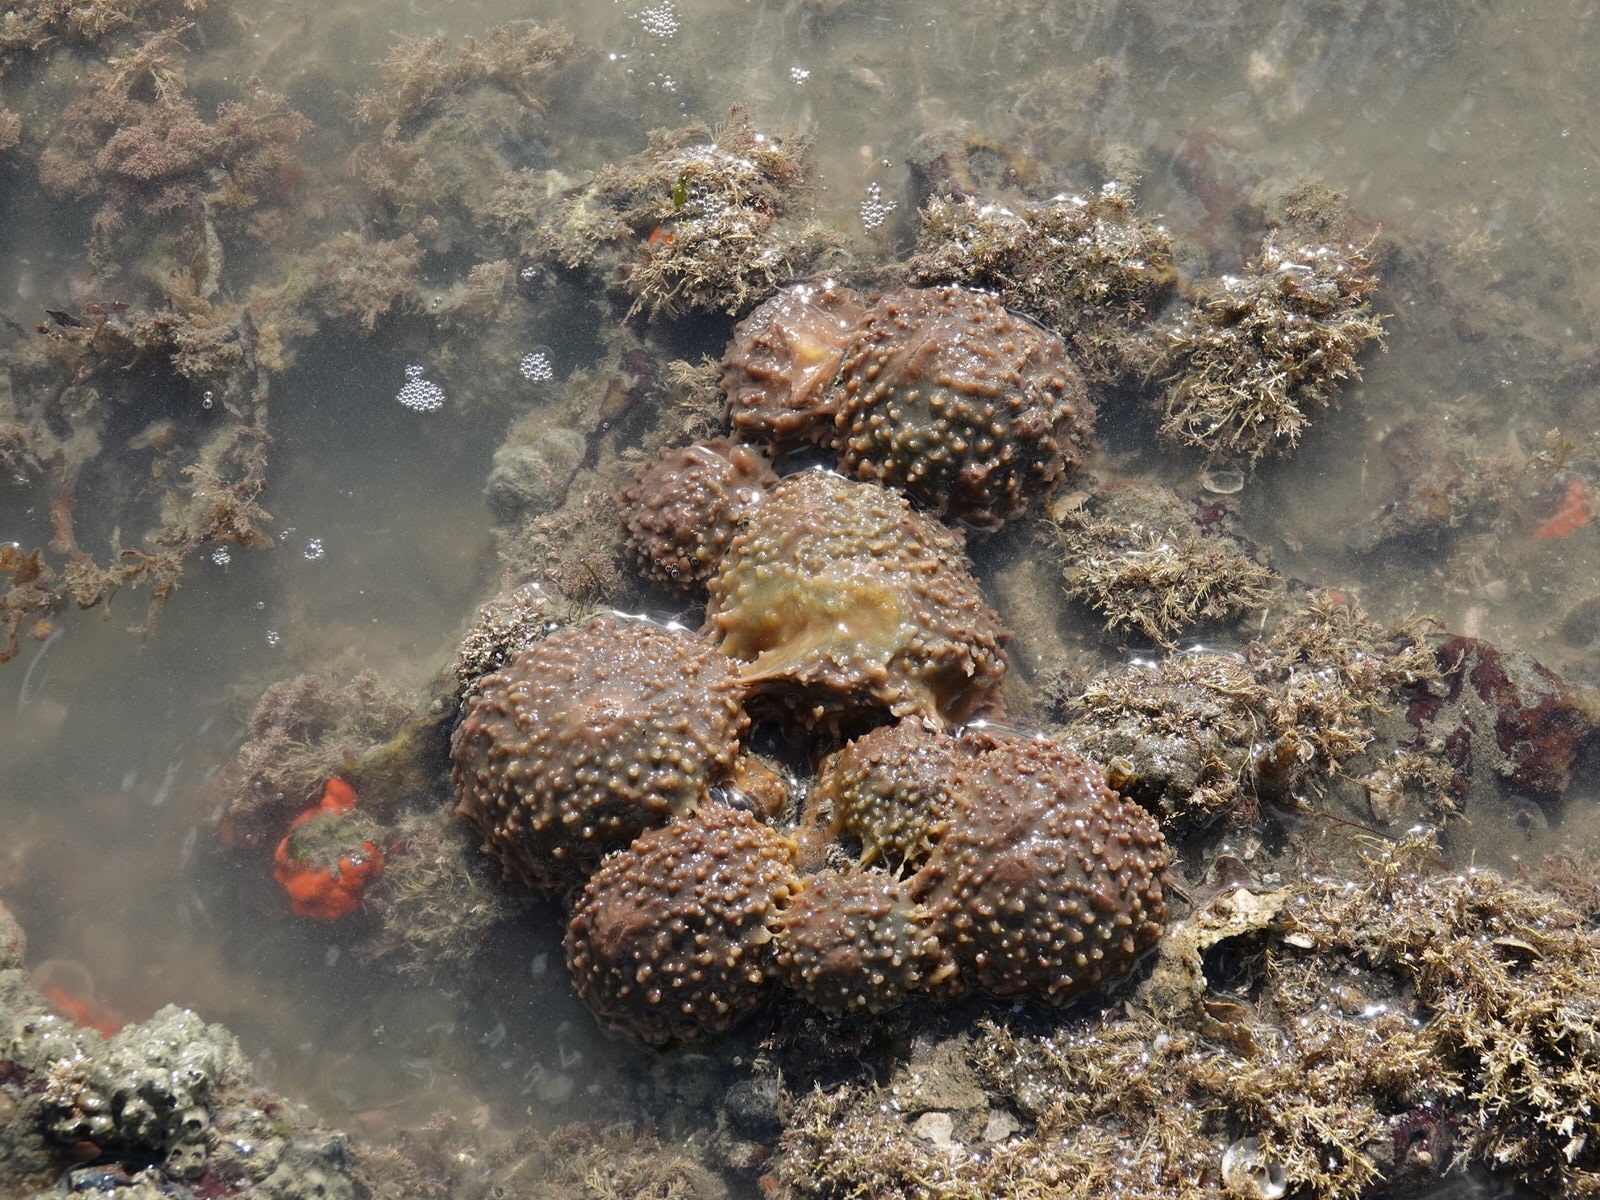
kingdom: Animalia
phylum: Porifera
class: Demospongiae
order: Suberitida
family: Suberitidae
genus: Aaptos
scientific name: Aaptos tenta
